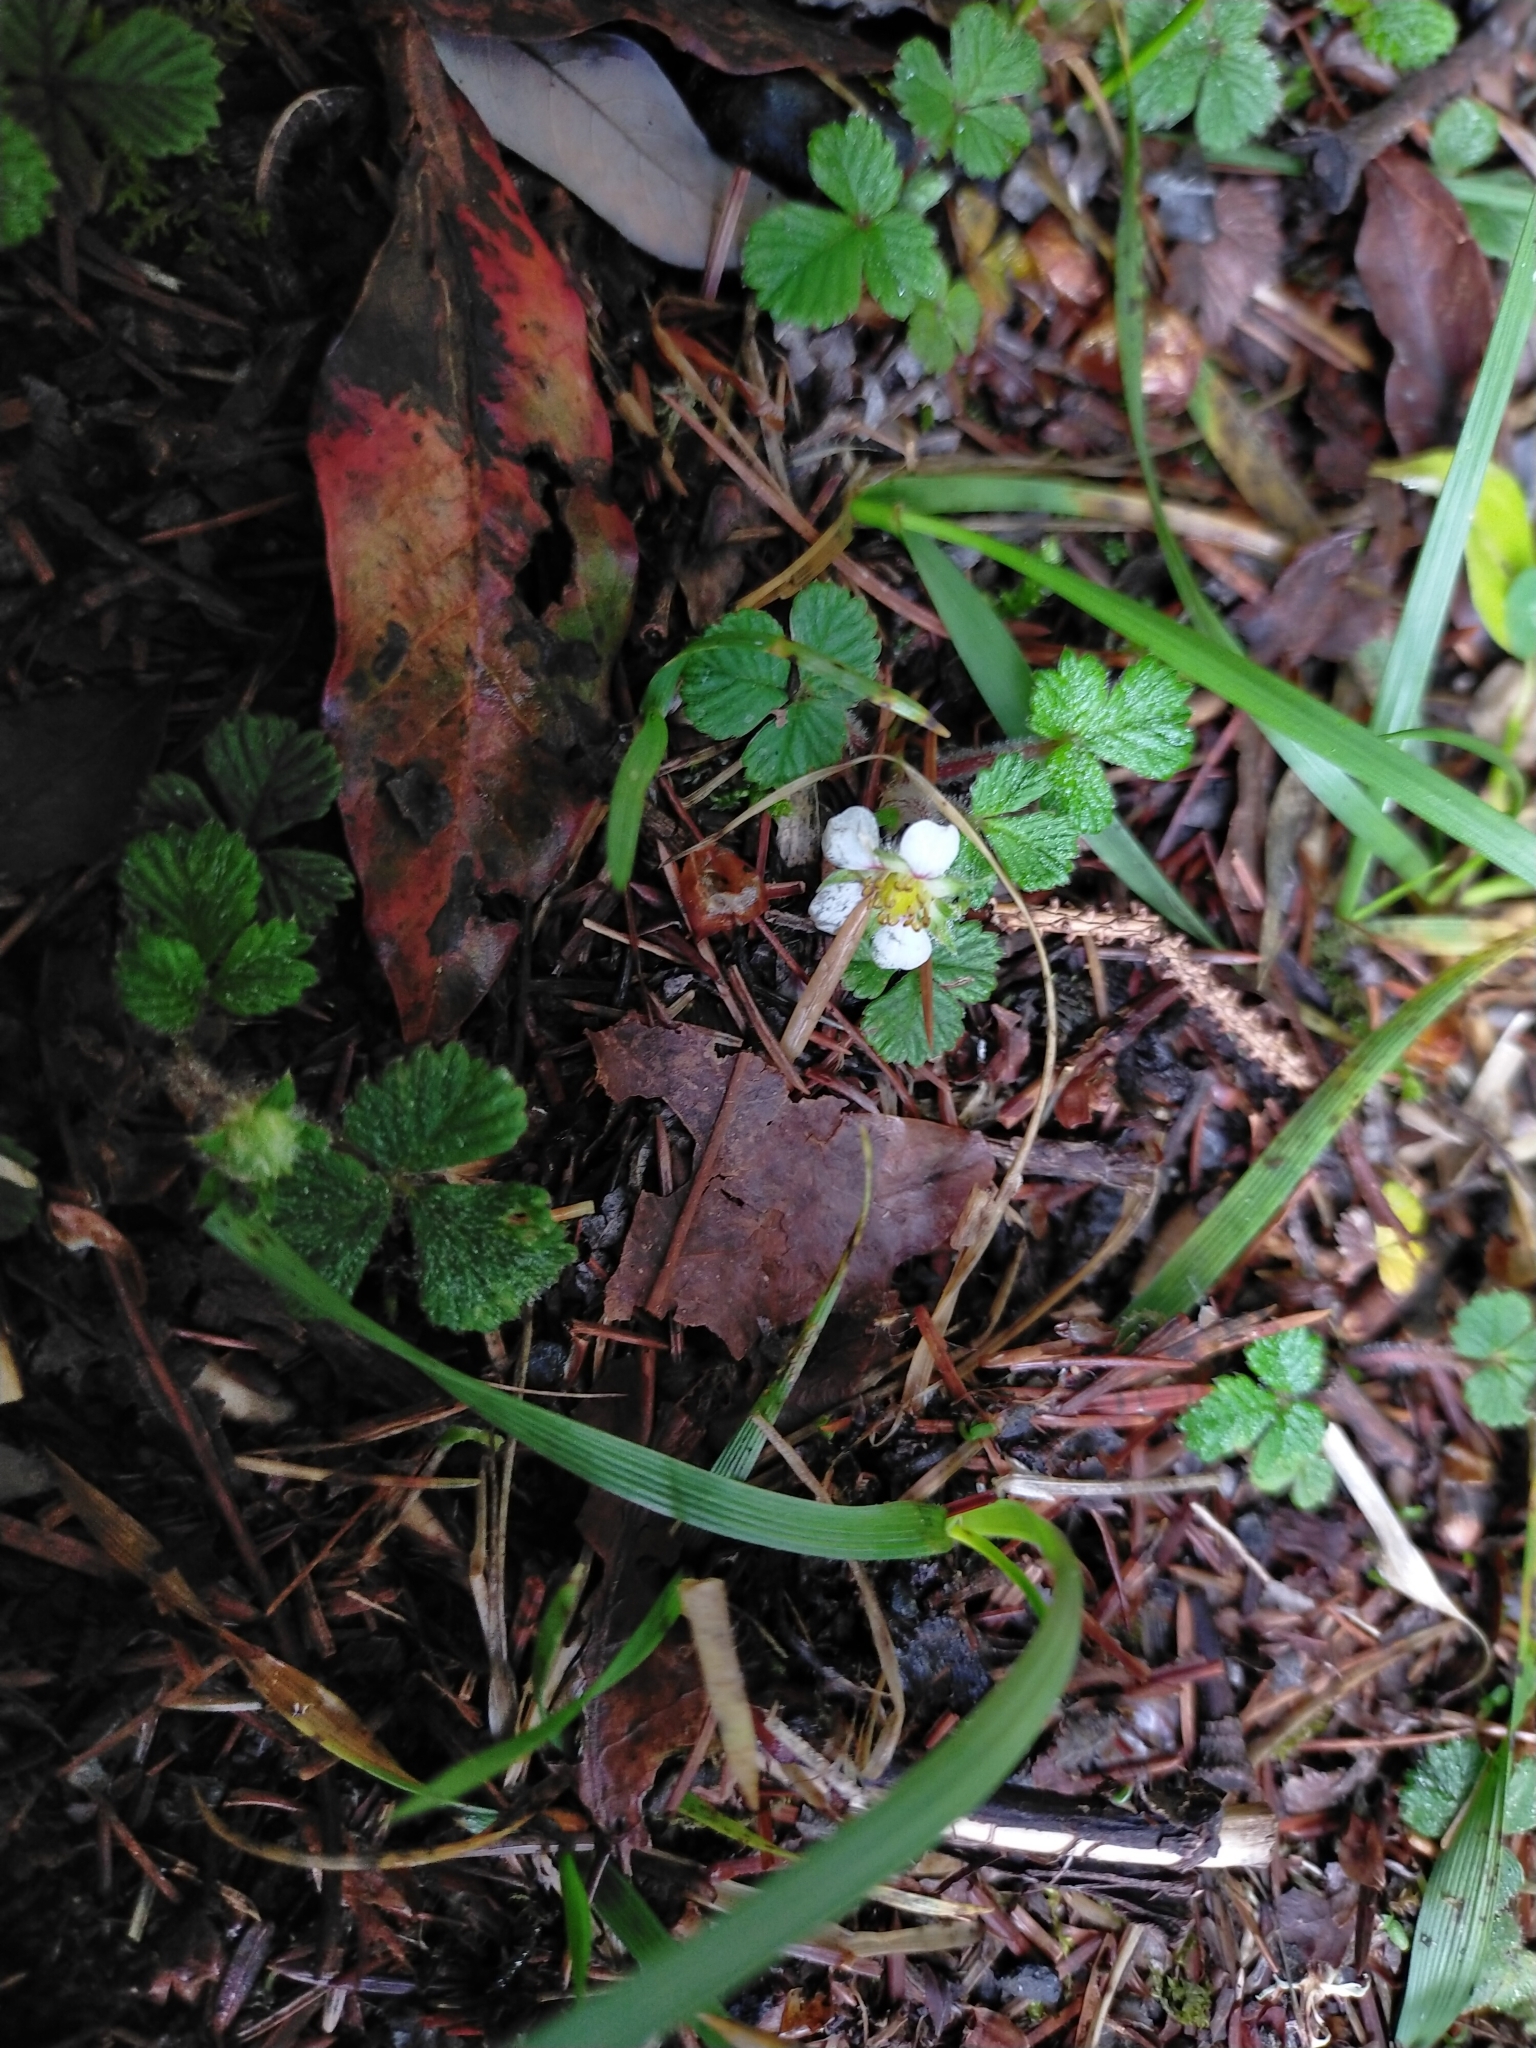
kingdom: Plantae
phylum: Tracheophyta
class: Magnoliopsida
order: Rosales
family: Rosaceae
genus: Fragaria
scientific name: Fragaria nilgerrensis
